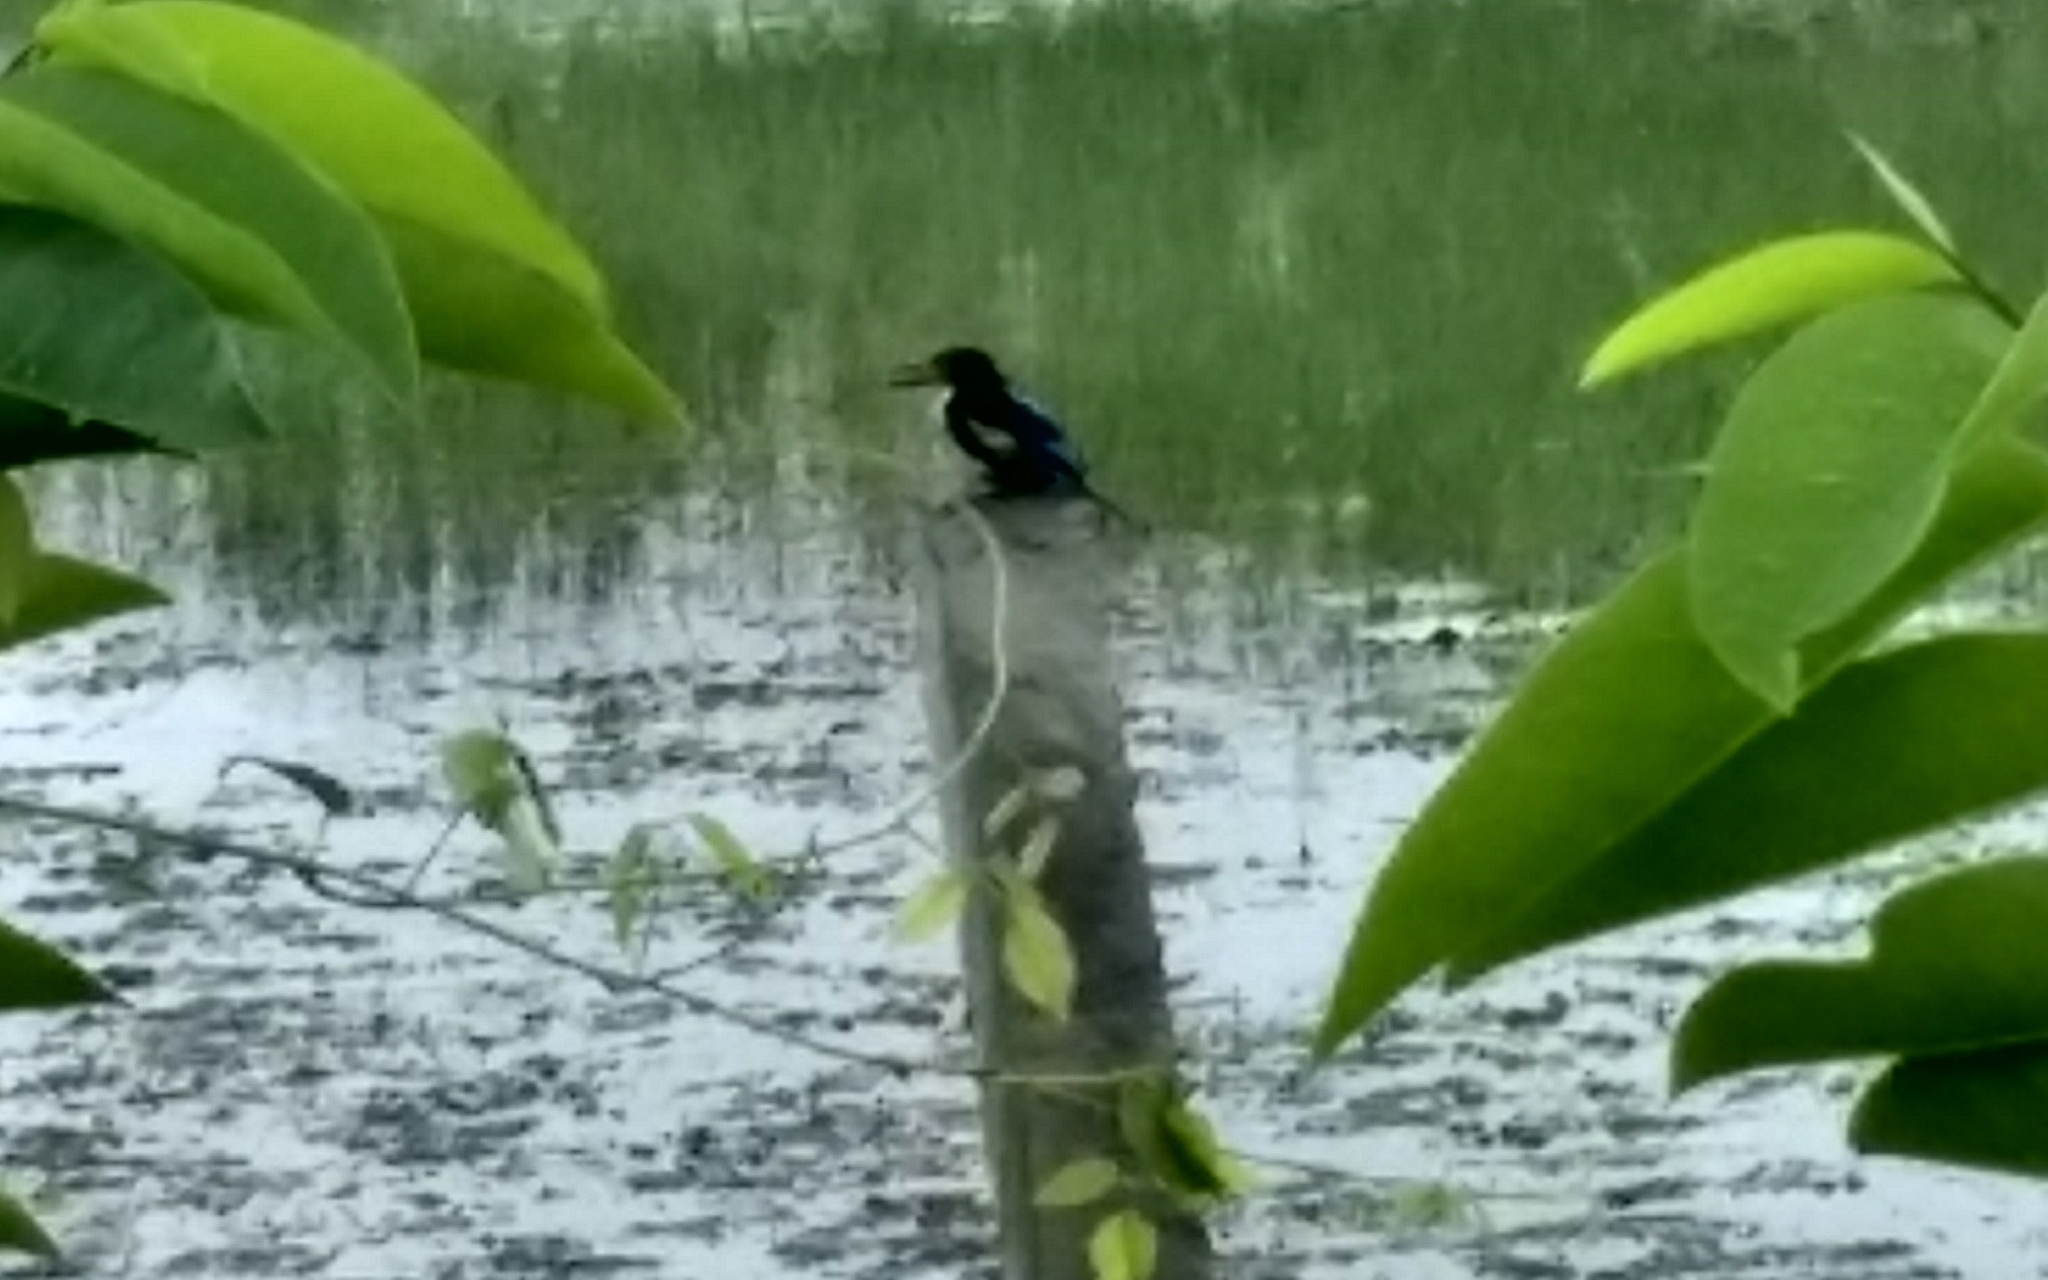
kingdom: Animalia
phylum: Chordata
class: Aves
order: Coraciiformes
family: Alcedinidae
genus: Halcyon
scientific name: Halcyon smyrnensis
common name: White-throated kingfisher
